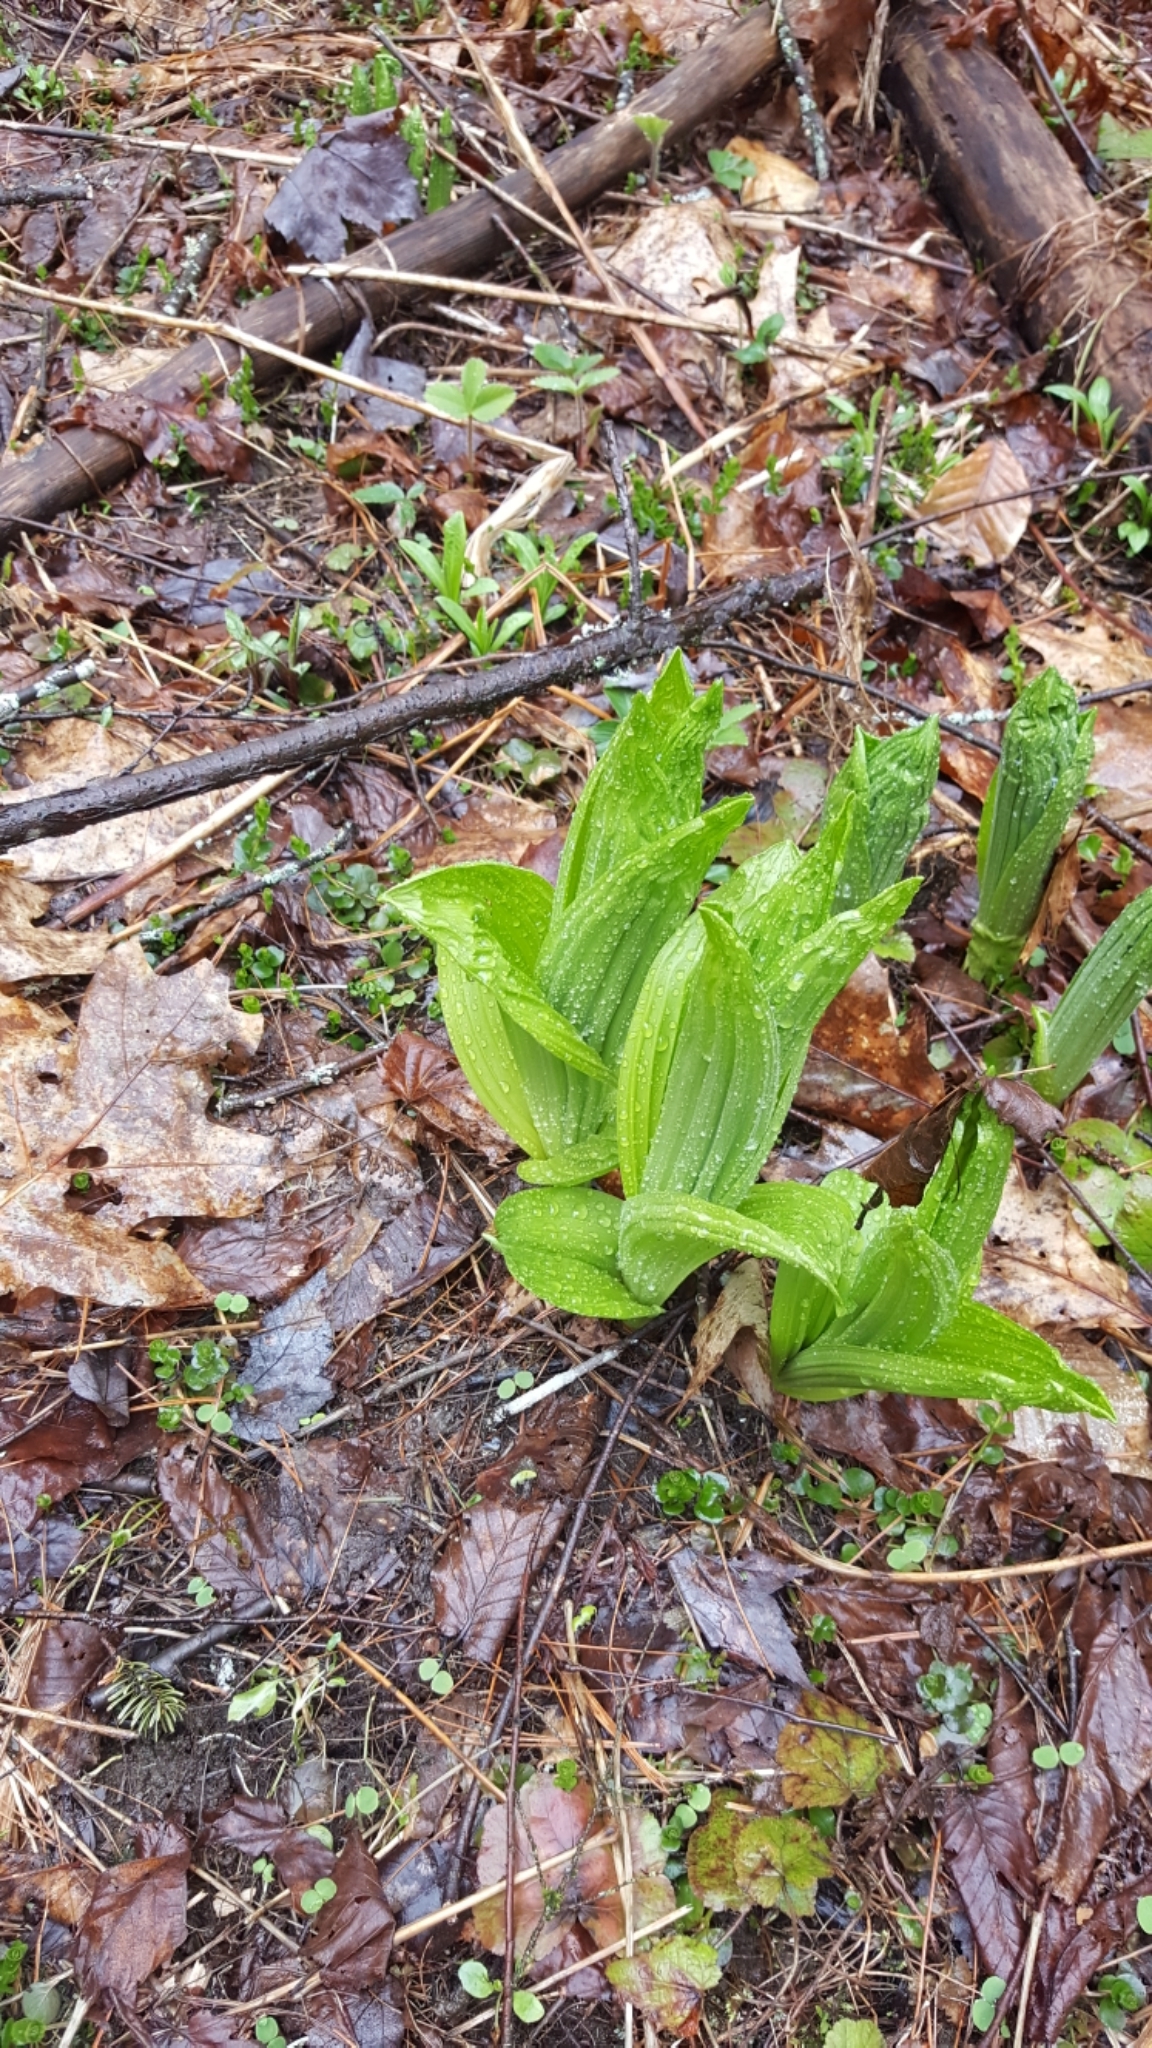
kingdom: Plantae
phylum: Tracheophyta
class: Liliopsida
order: Liliales
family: Melanthiaceae
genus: Veratrum
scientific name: Veratrum viride
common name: American false hellebore
